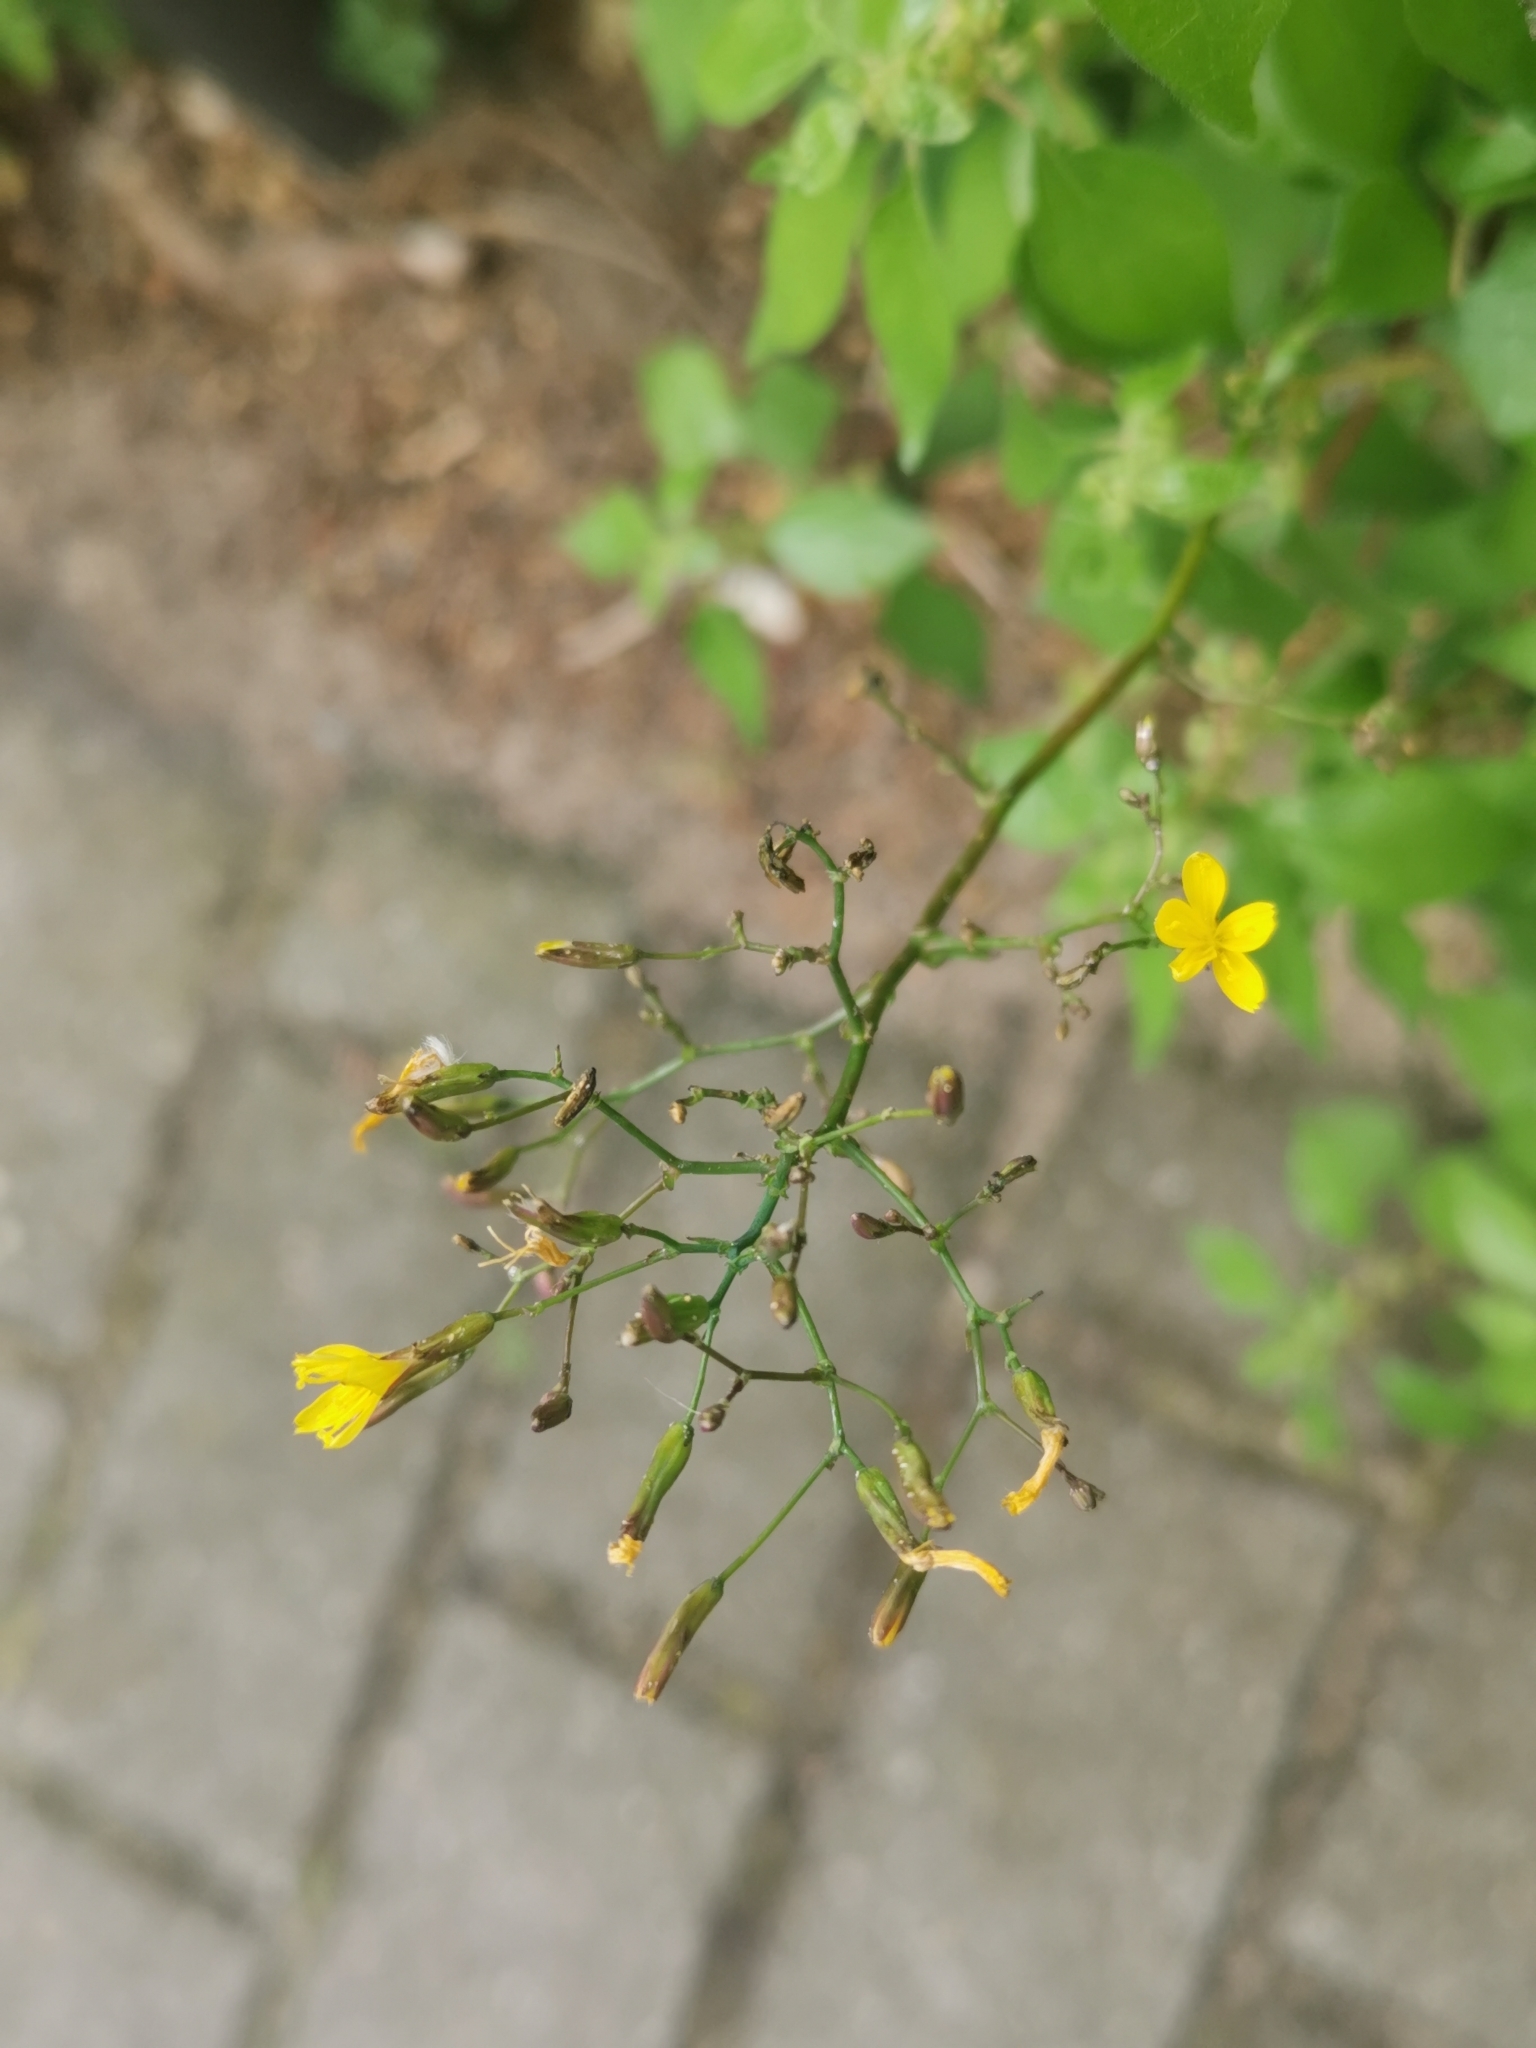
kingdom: Plantae
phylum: Tracheophyta
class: Magnoliopsida
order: Asterales
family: Asteraceae
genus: Mycelis
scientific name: Mycelis muralis
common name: Wall lettuce
